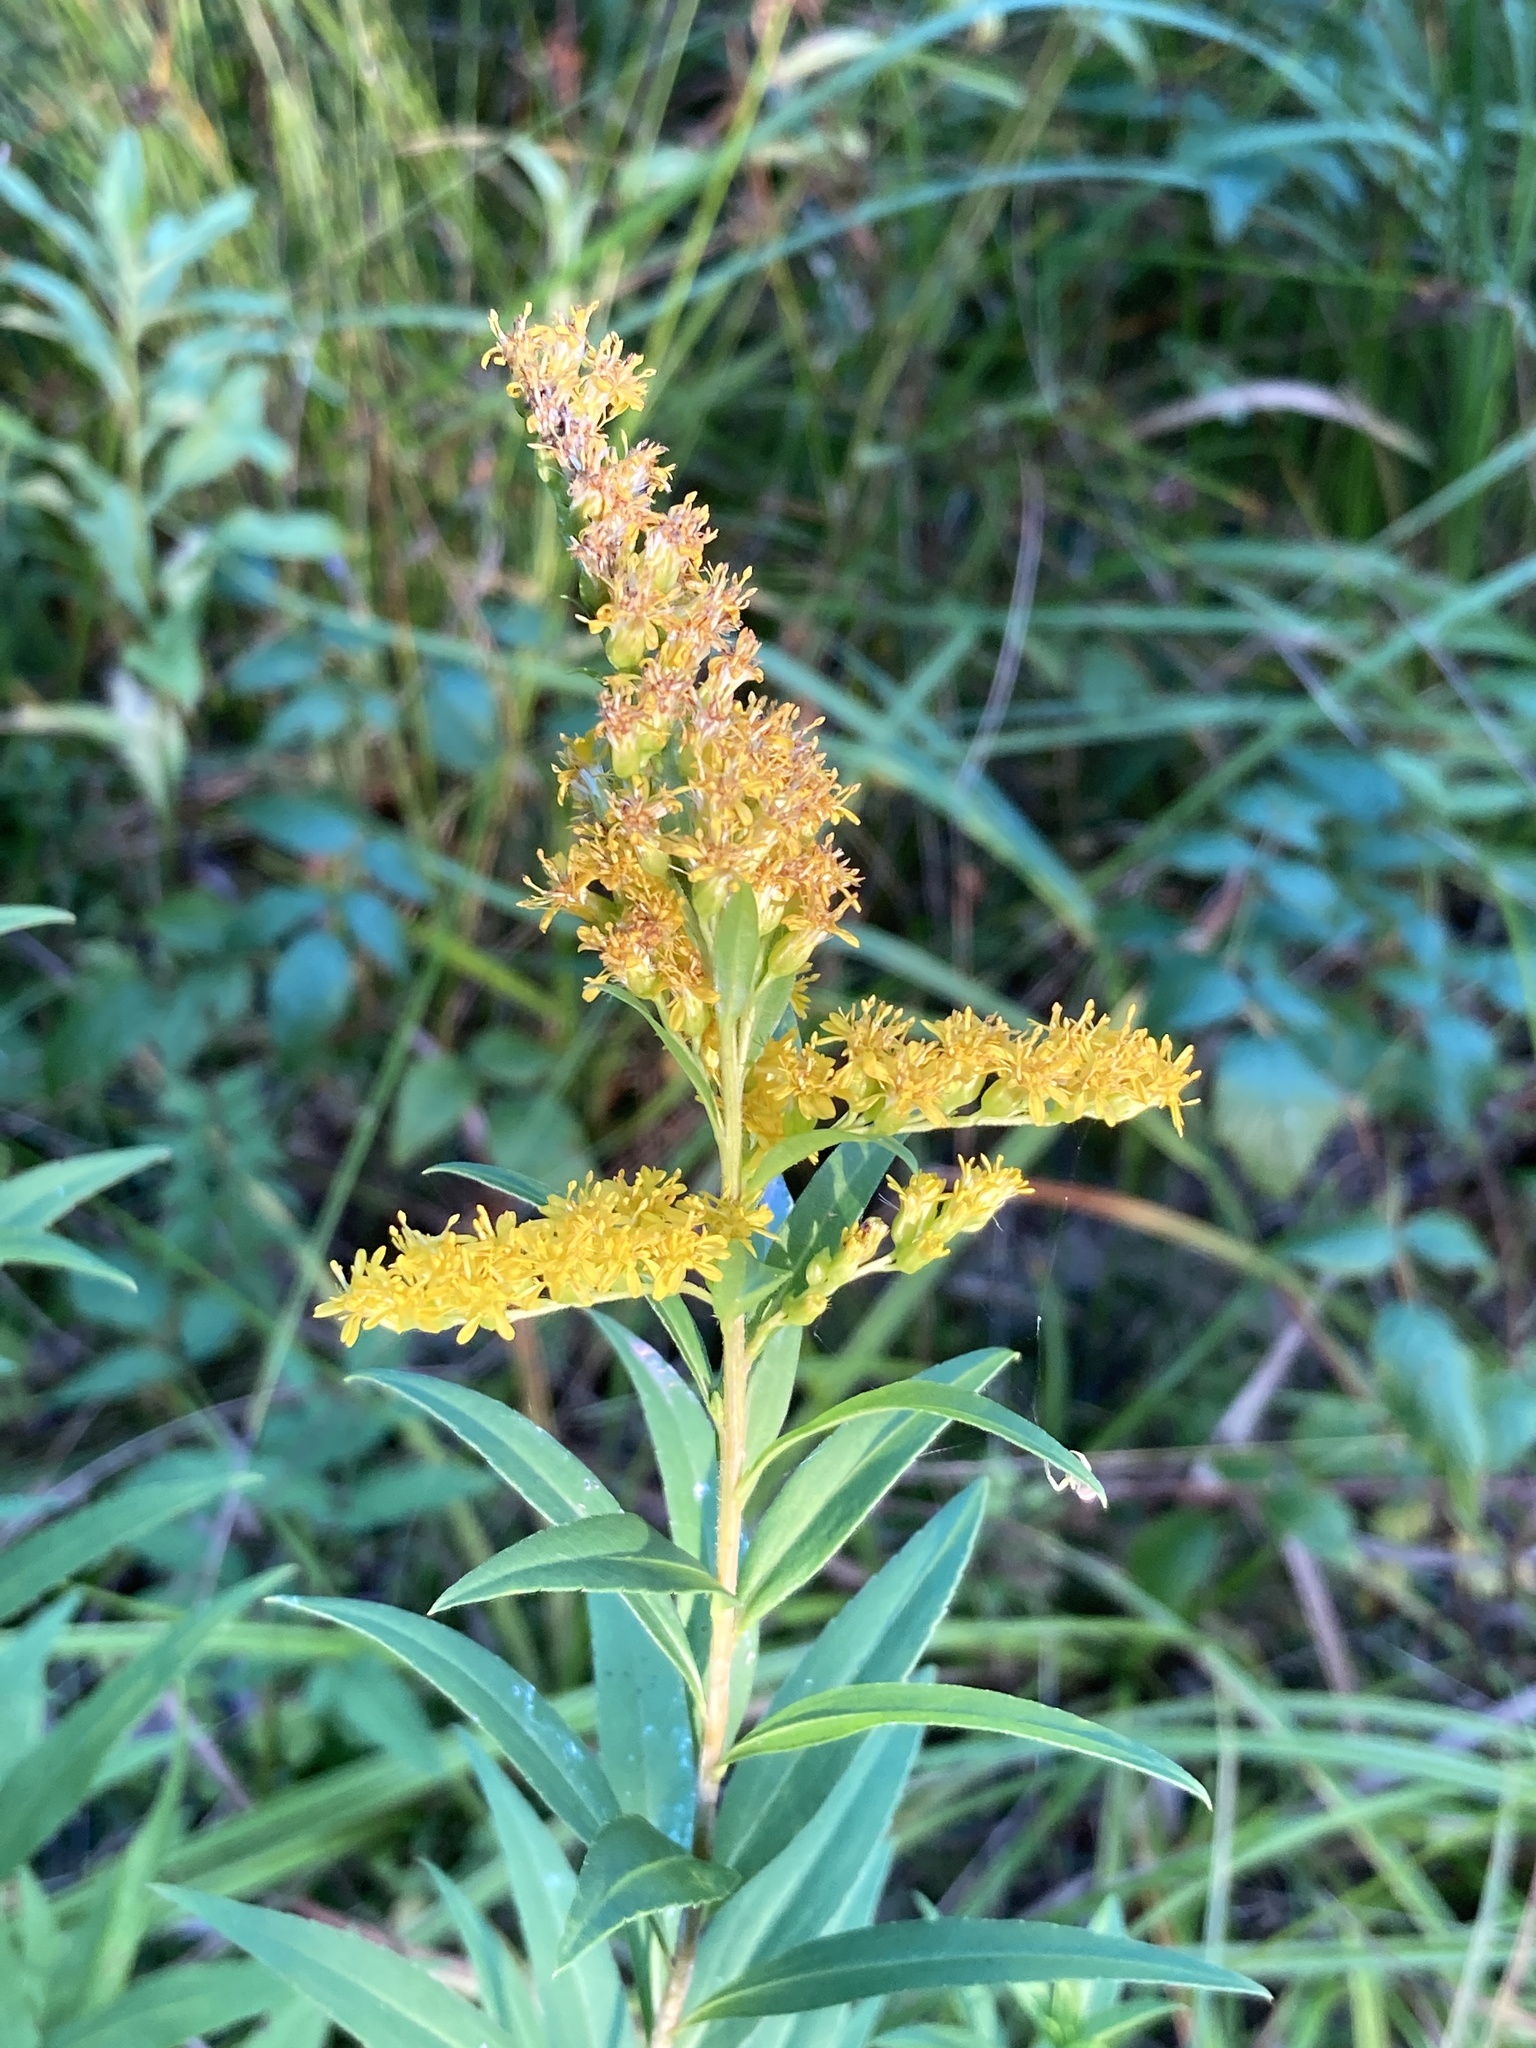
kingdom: Plantae
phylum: Tracheophyta
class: Magnoliopsida
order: Asterales
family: Asteraceae
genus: Solidago
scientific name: Solidago gigantea
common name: Giant goldenrod
